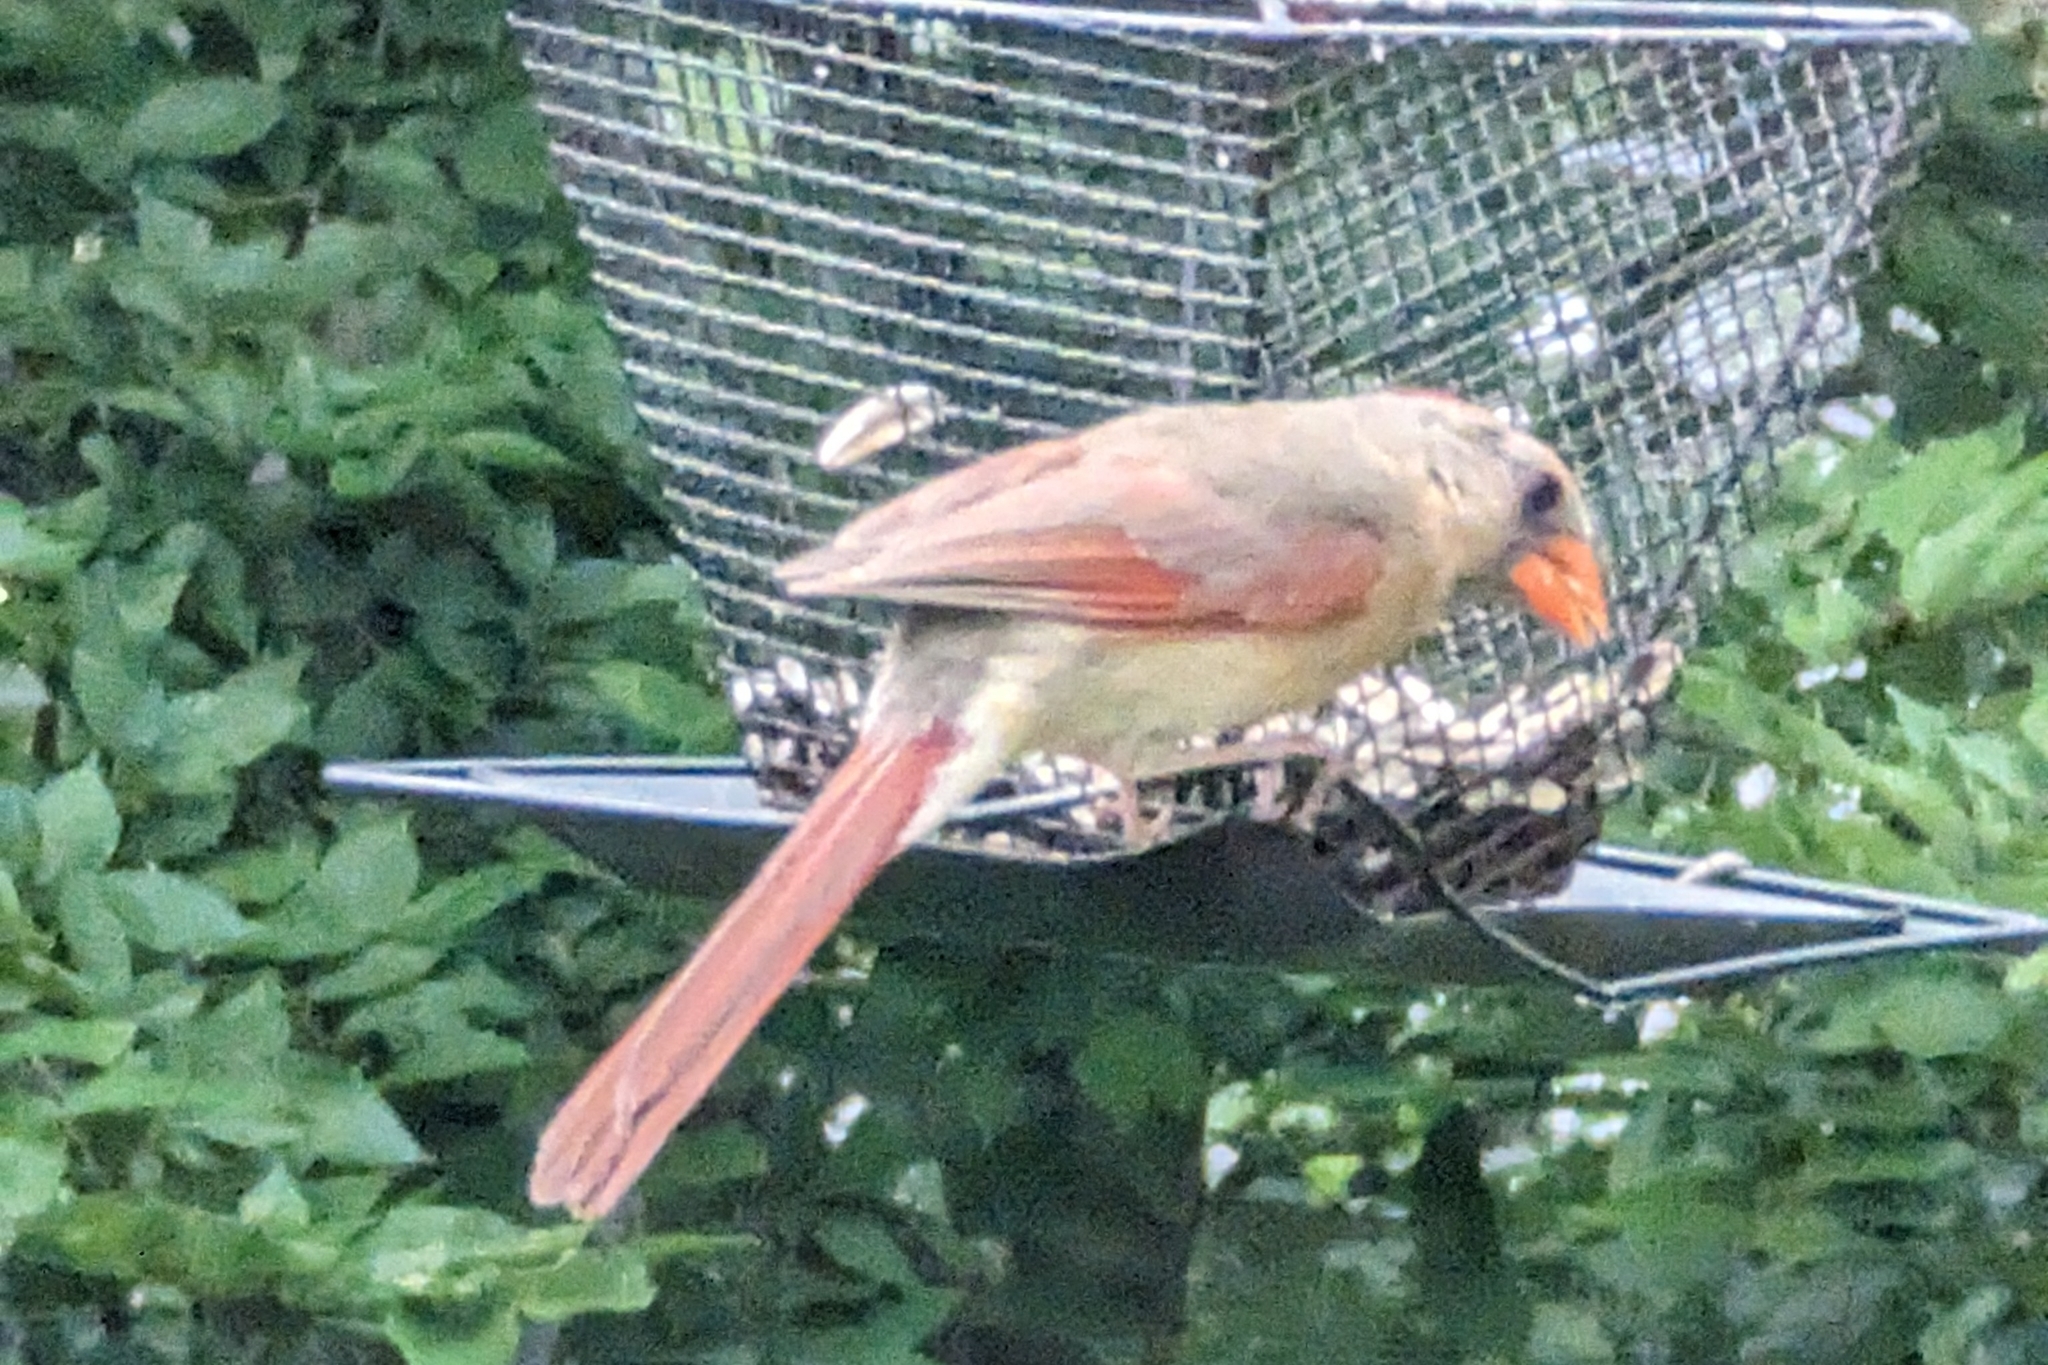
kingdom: Animalia
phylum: Chordata
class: Aves
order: Passeriformes
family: Cardinalidae
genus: Cardinalis
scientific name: Cardinalis cardinalis
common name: Northern cardinal
